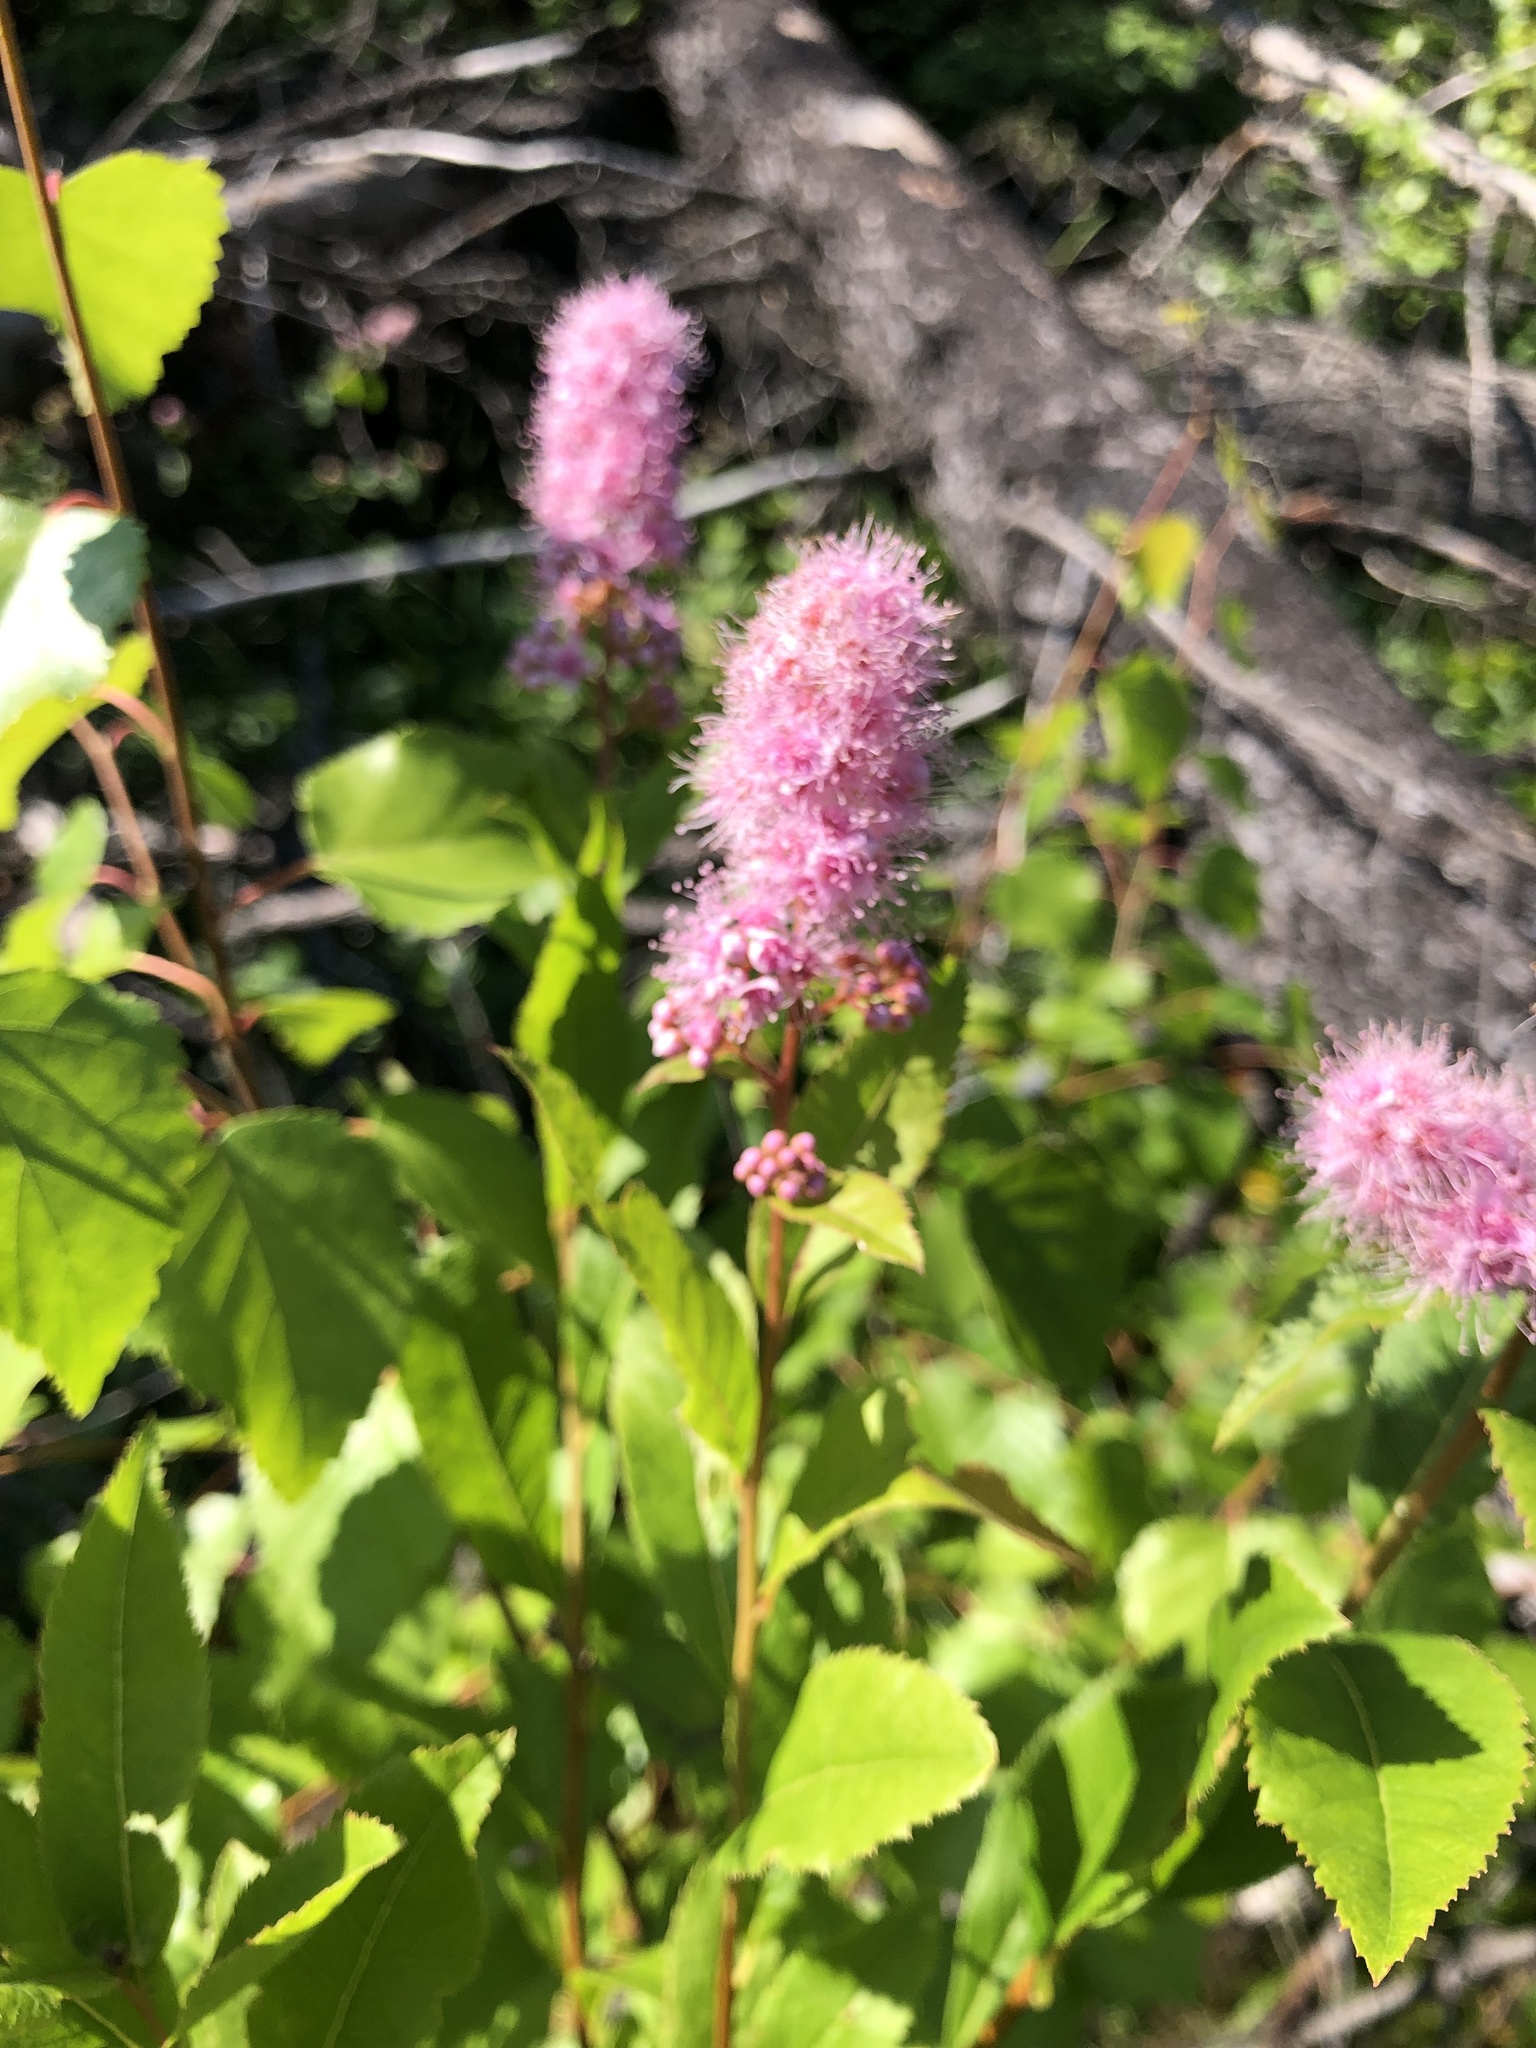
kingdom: Plantae
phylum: Tracheophyta
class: Magnoliopsida
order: Rosales
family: Rosaceae
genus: Spiraea
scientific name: Spiraea salicifolia
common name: Bridewort
